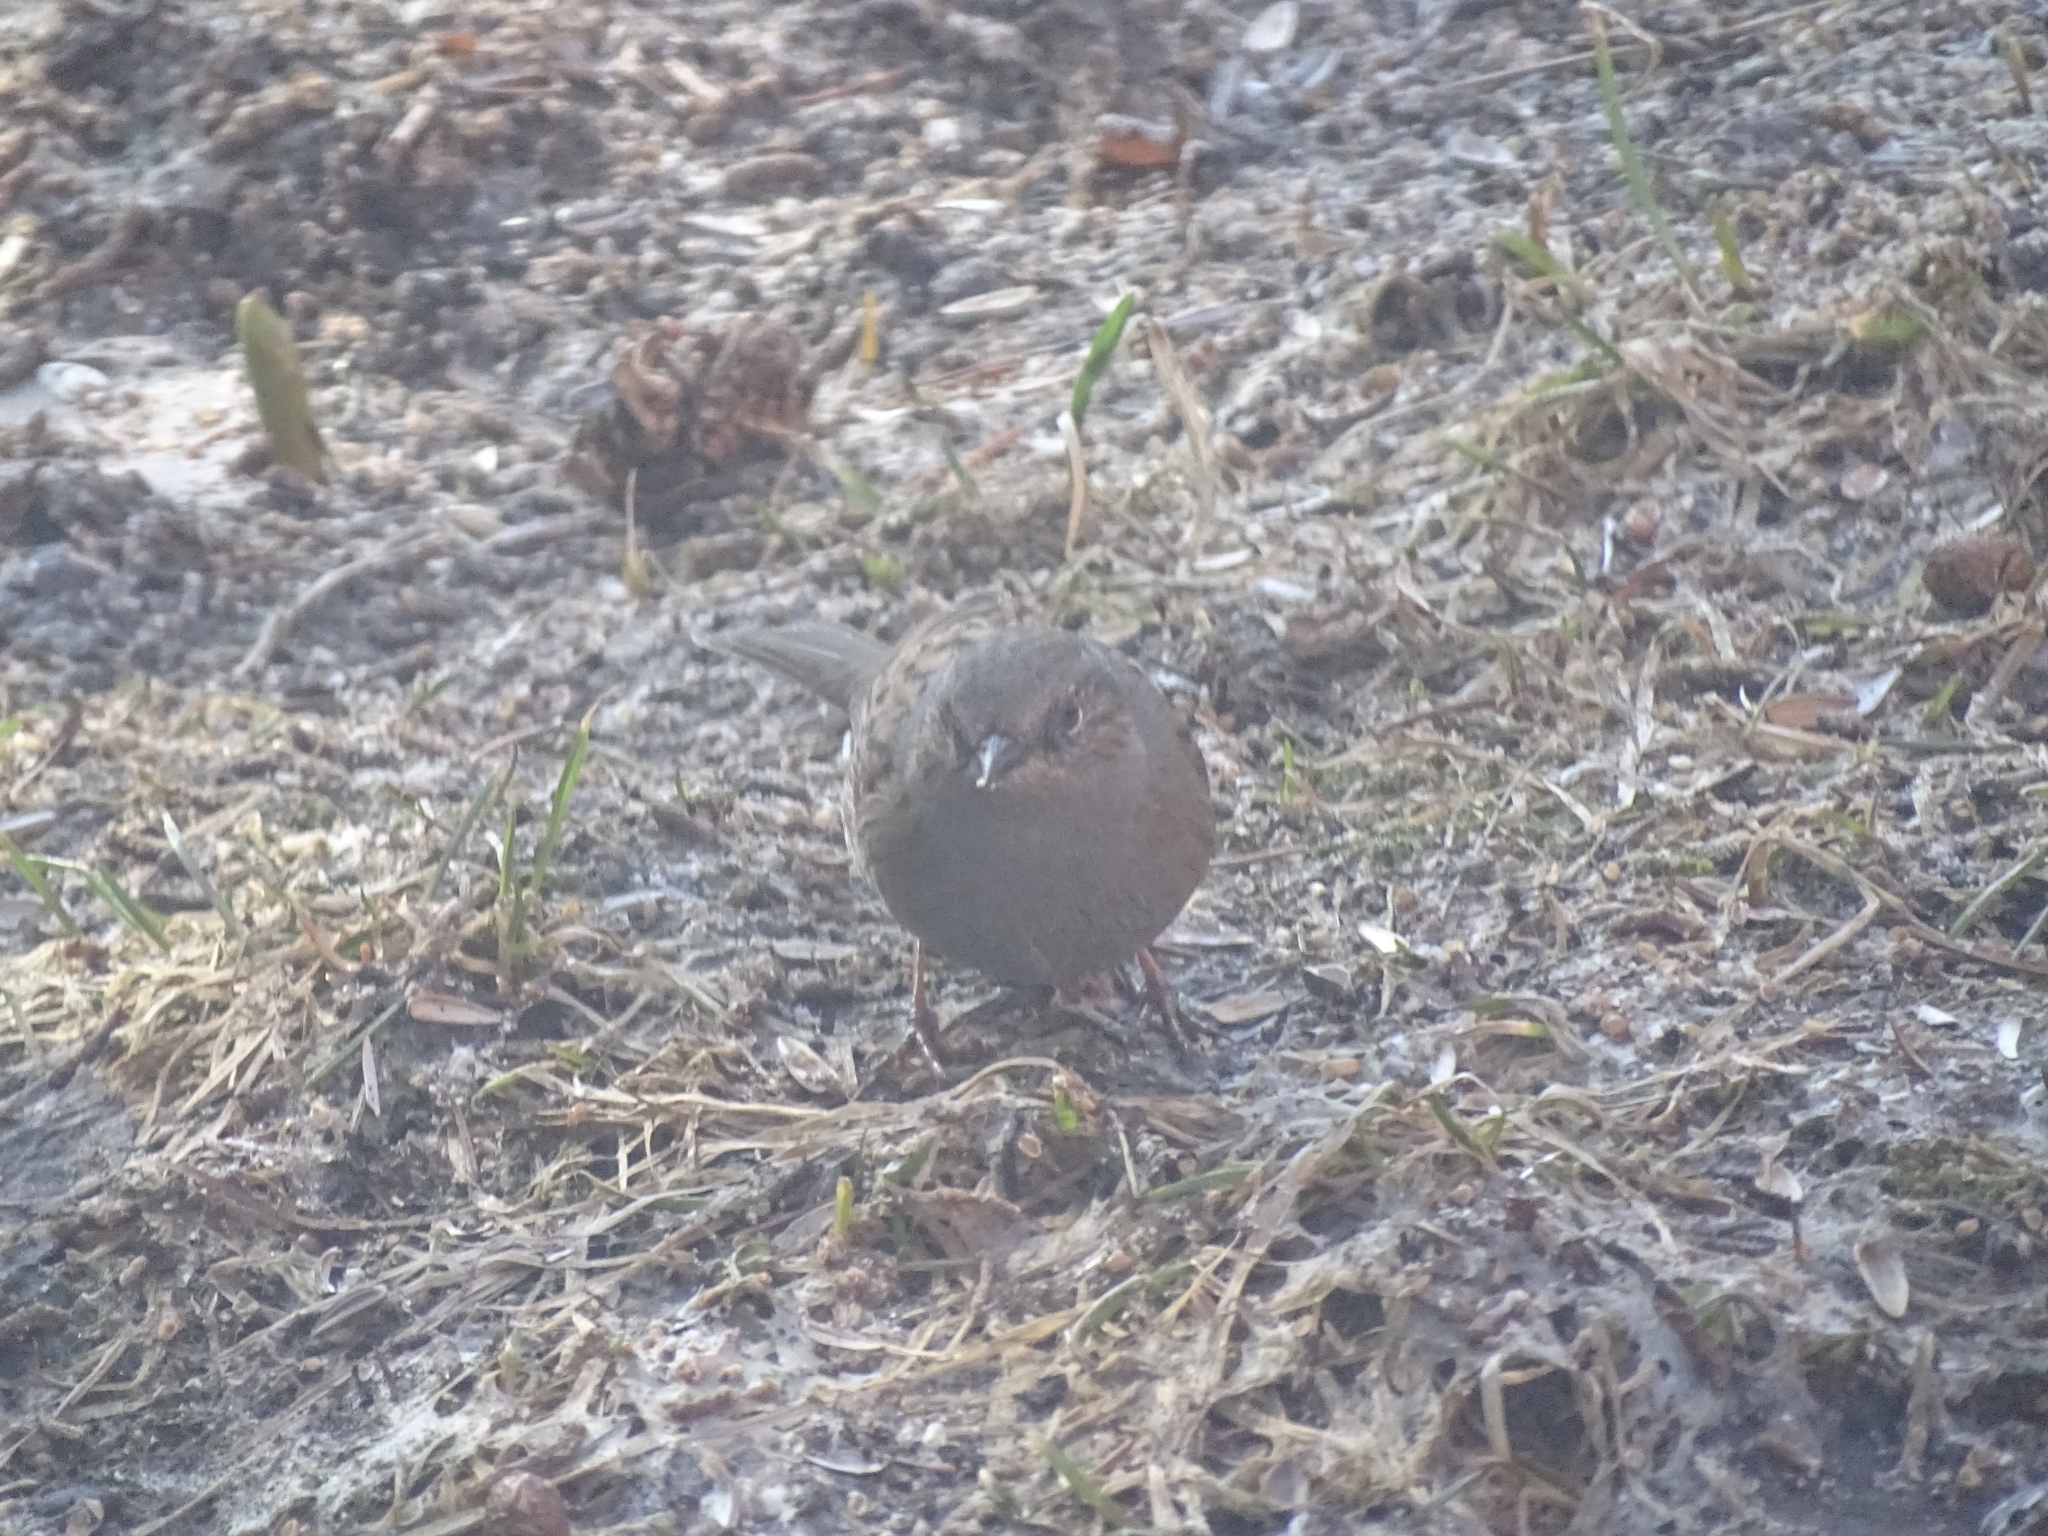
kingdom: Animalia
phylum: Chordata
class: Aves
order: Passeriformes
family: Prunellidae
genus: Prunella
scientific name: Prunella modularis
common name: Dunnock
